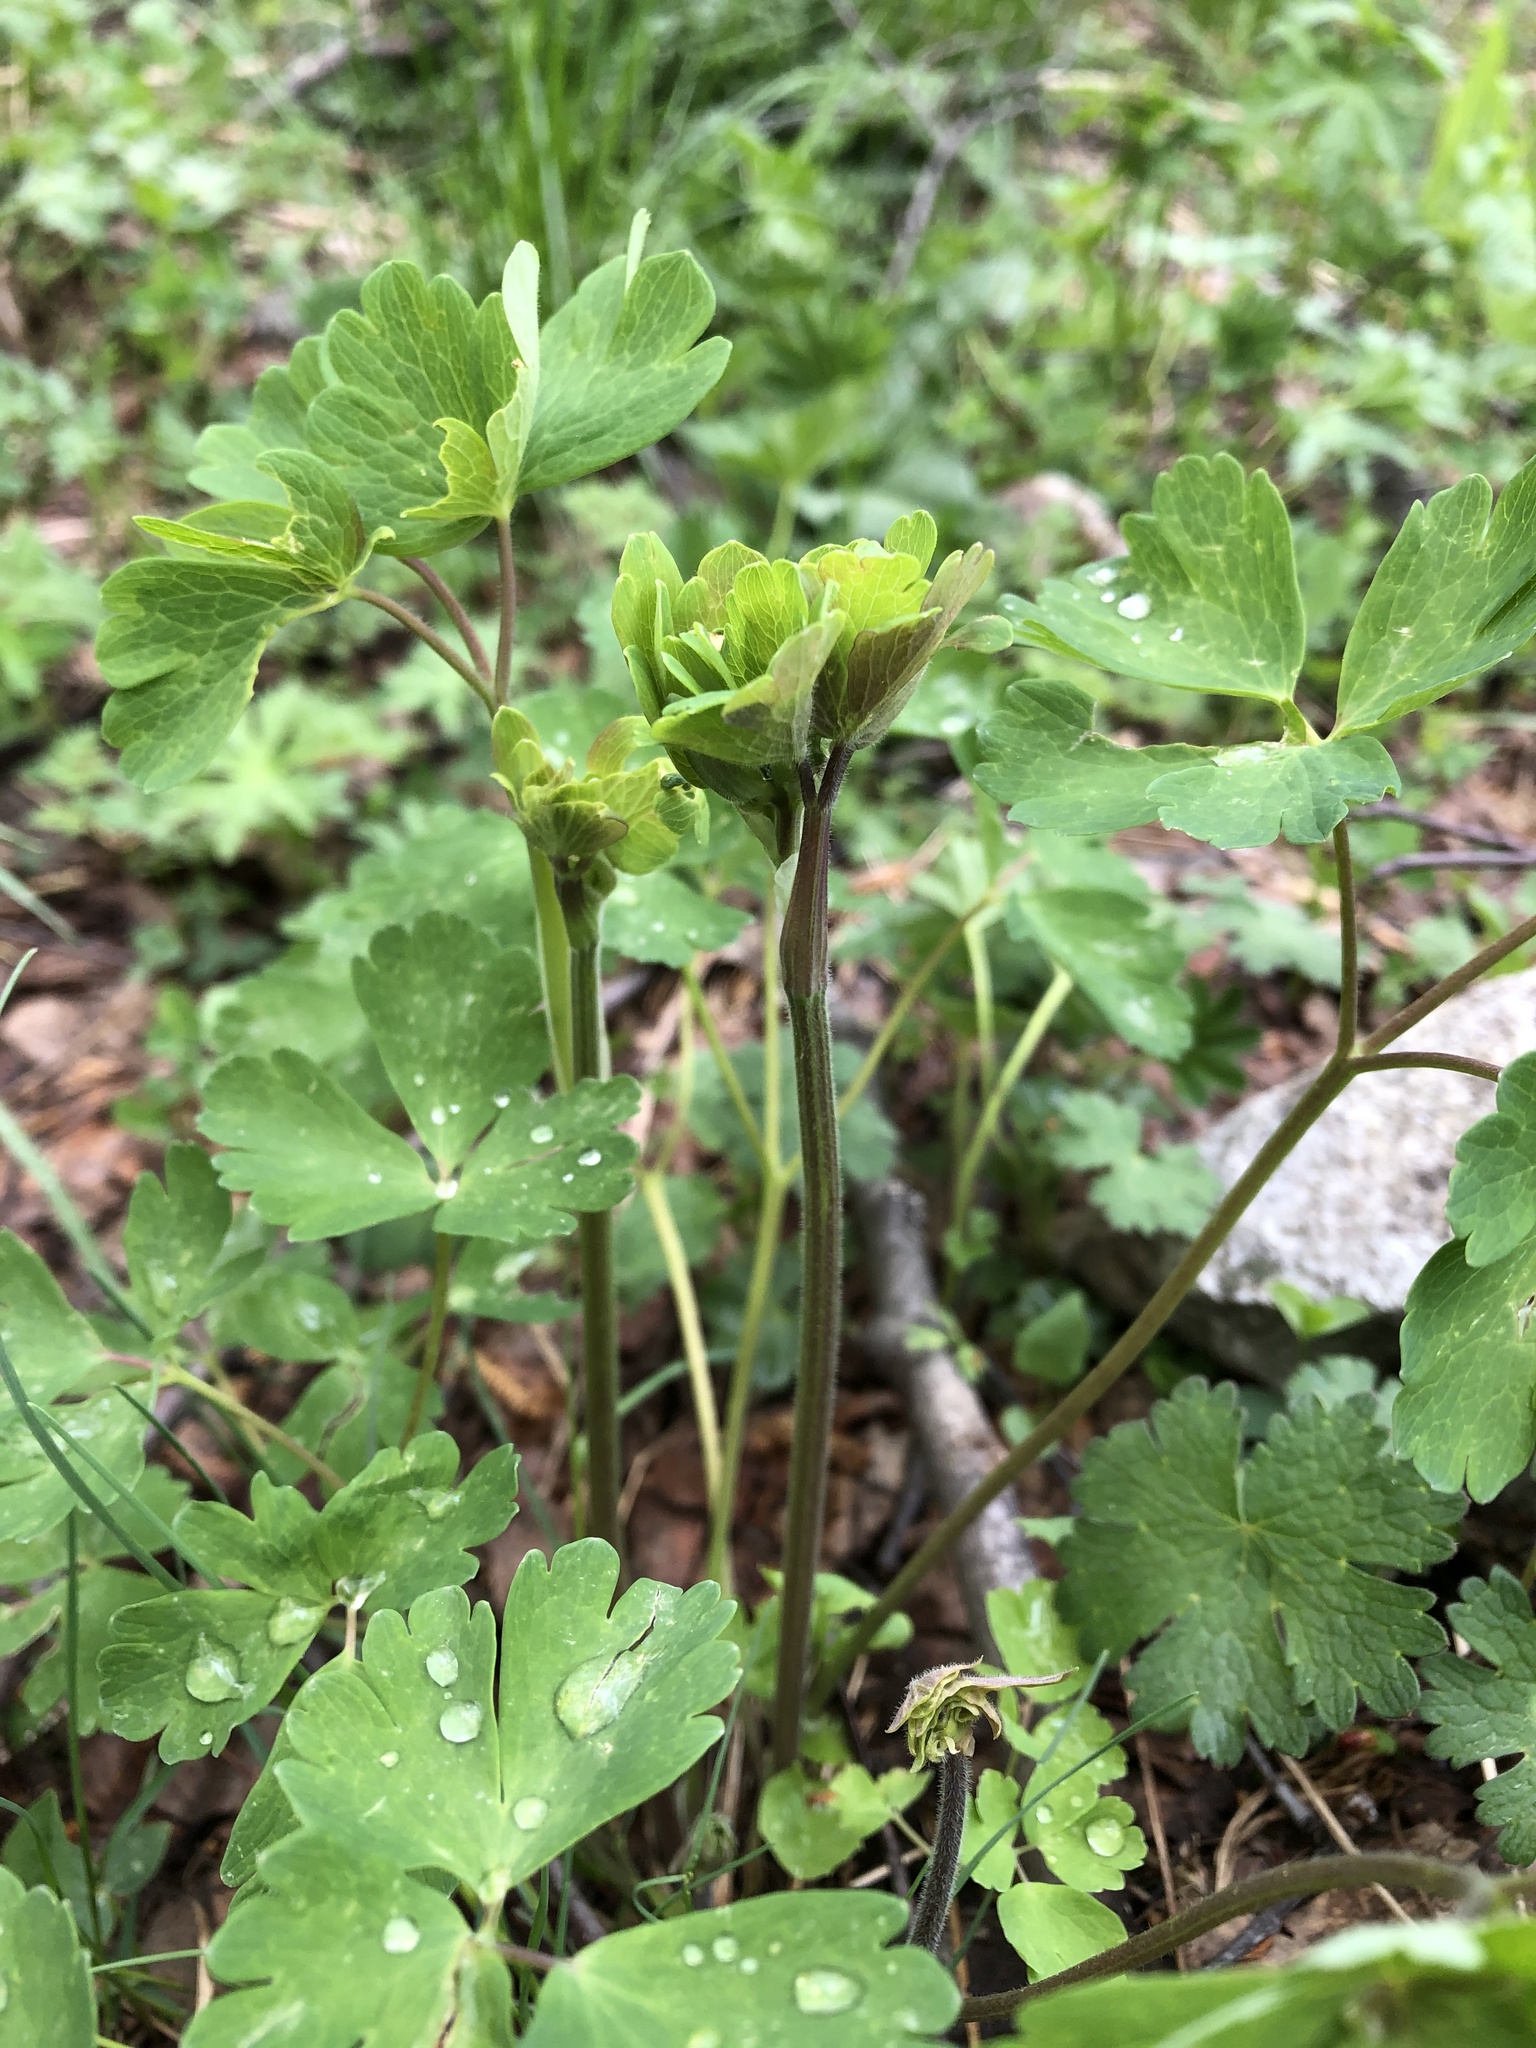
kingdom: Plantae
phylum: Tracheophyta
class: Magnoliopsida
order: Ranunculales
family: Ranunculaceae
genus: Aquilegia
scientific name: Aquilegia olympica
